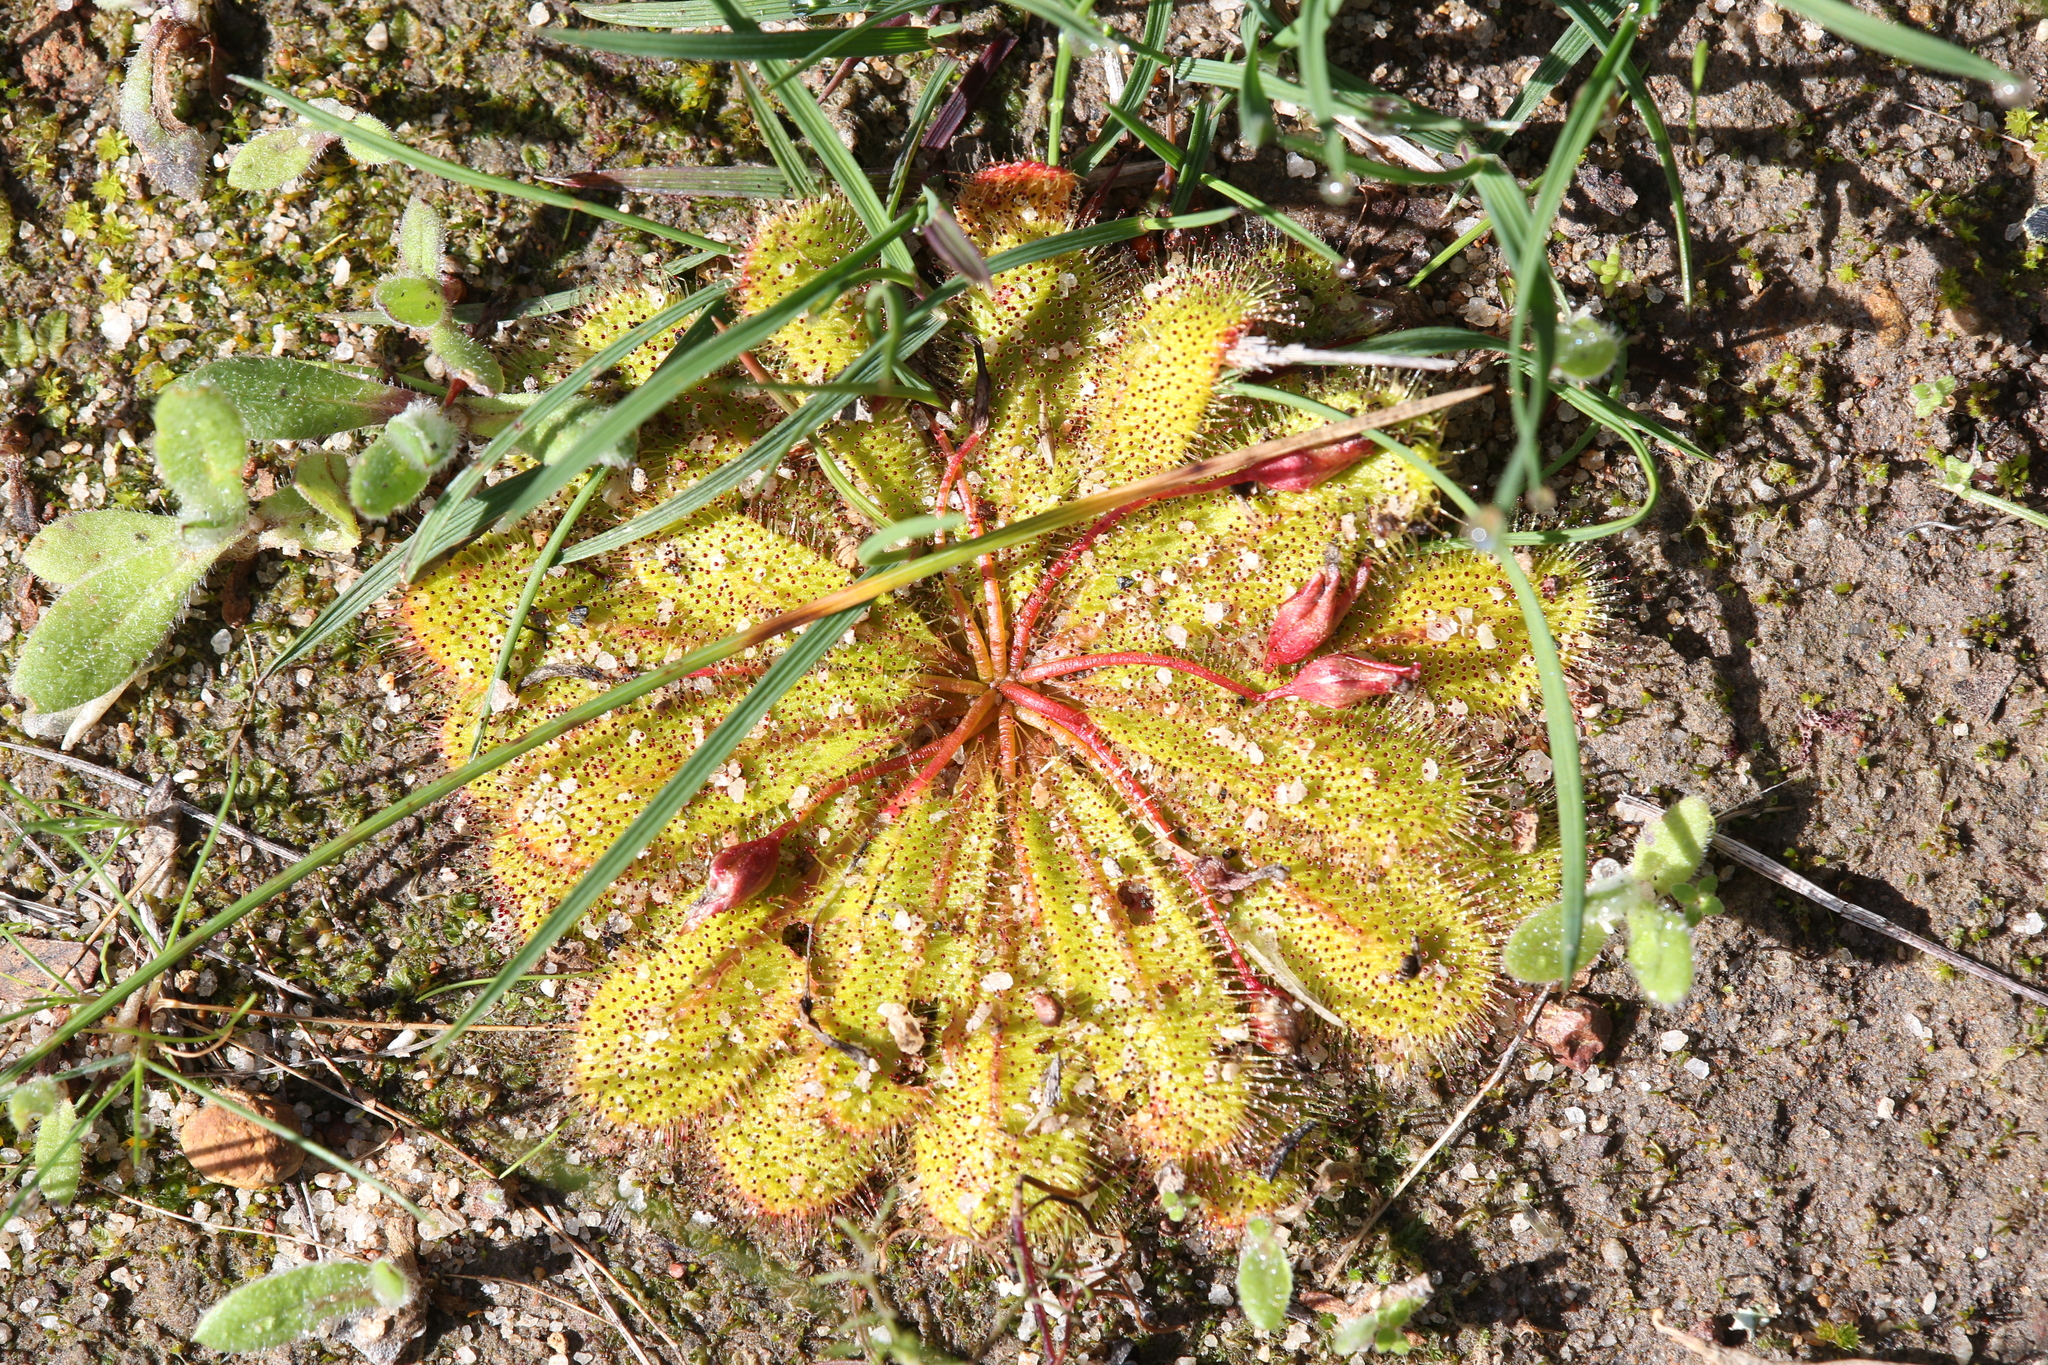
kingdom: Plantae
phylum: Tracheophyta
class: Magnoliopsida
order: Caryophyllales
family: Droseraceae
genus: Drosera
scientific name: Drosera bulbosa
